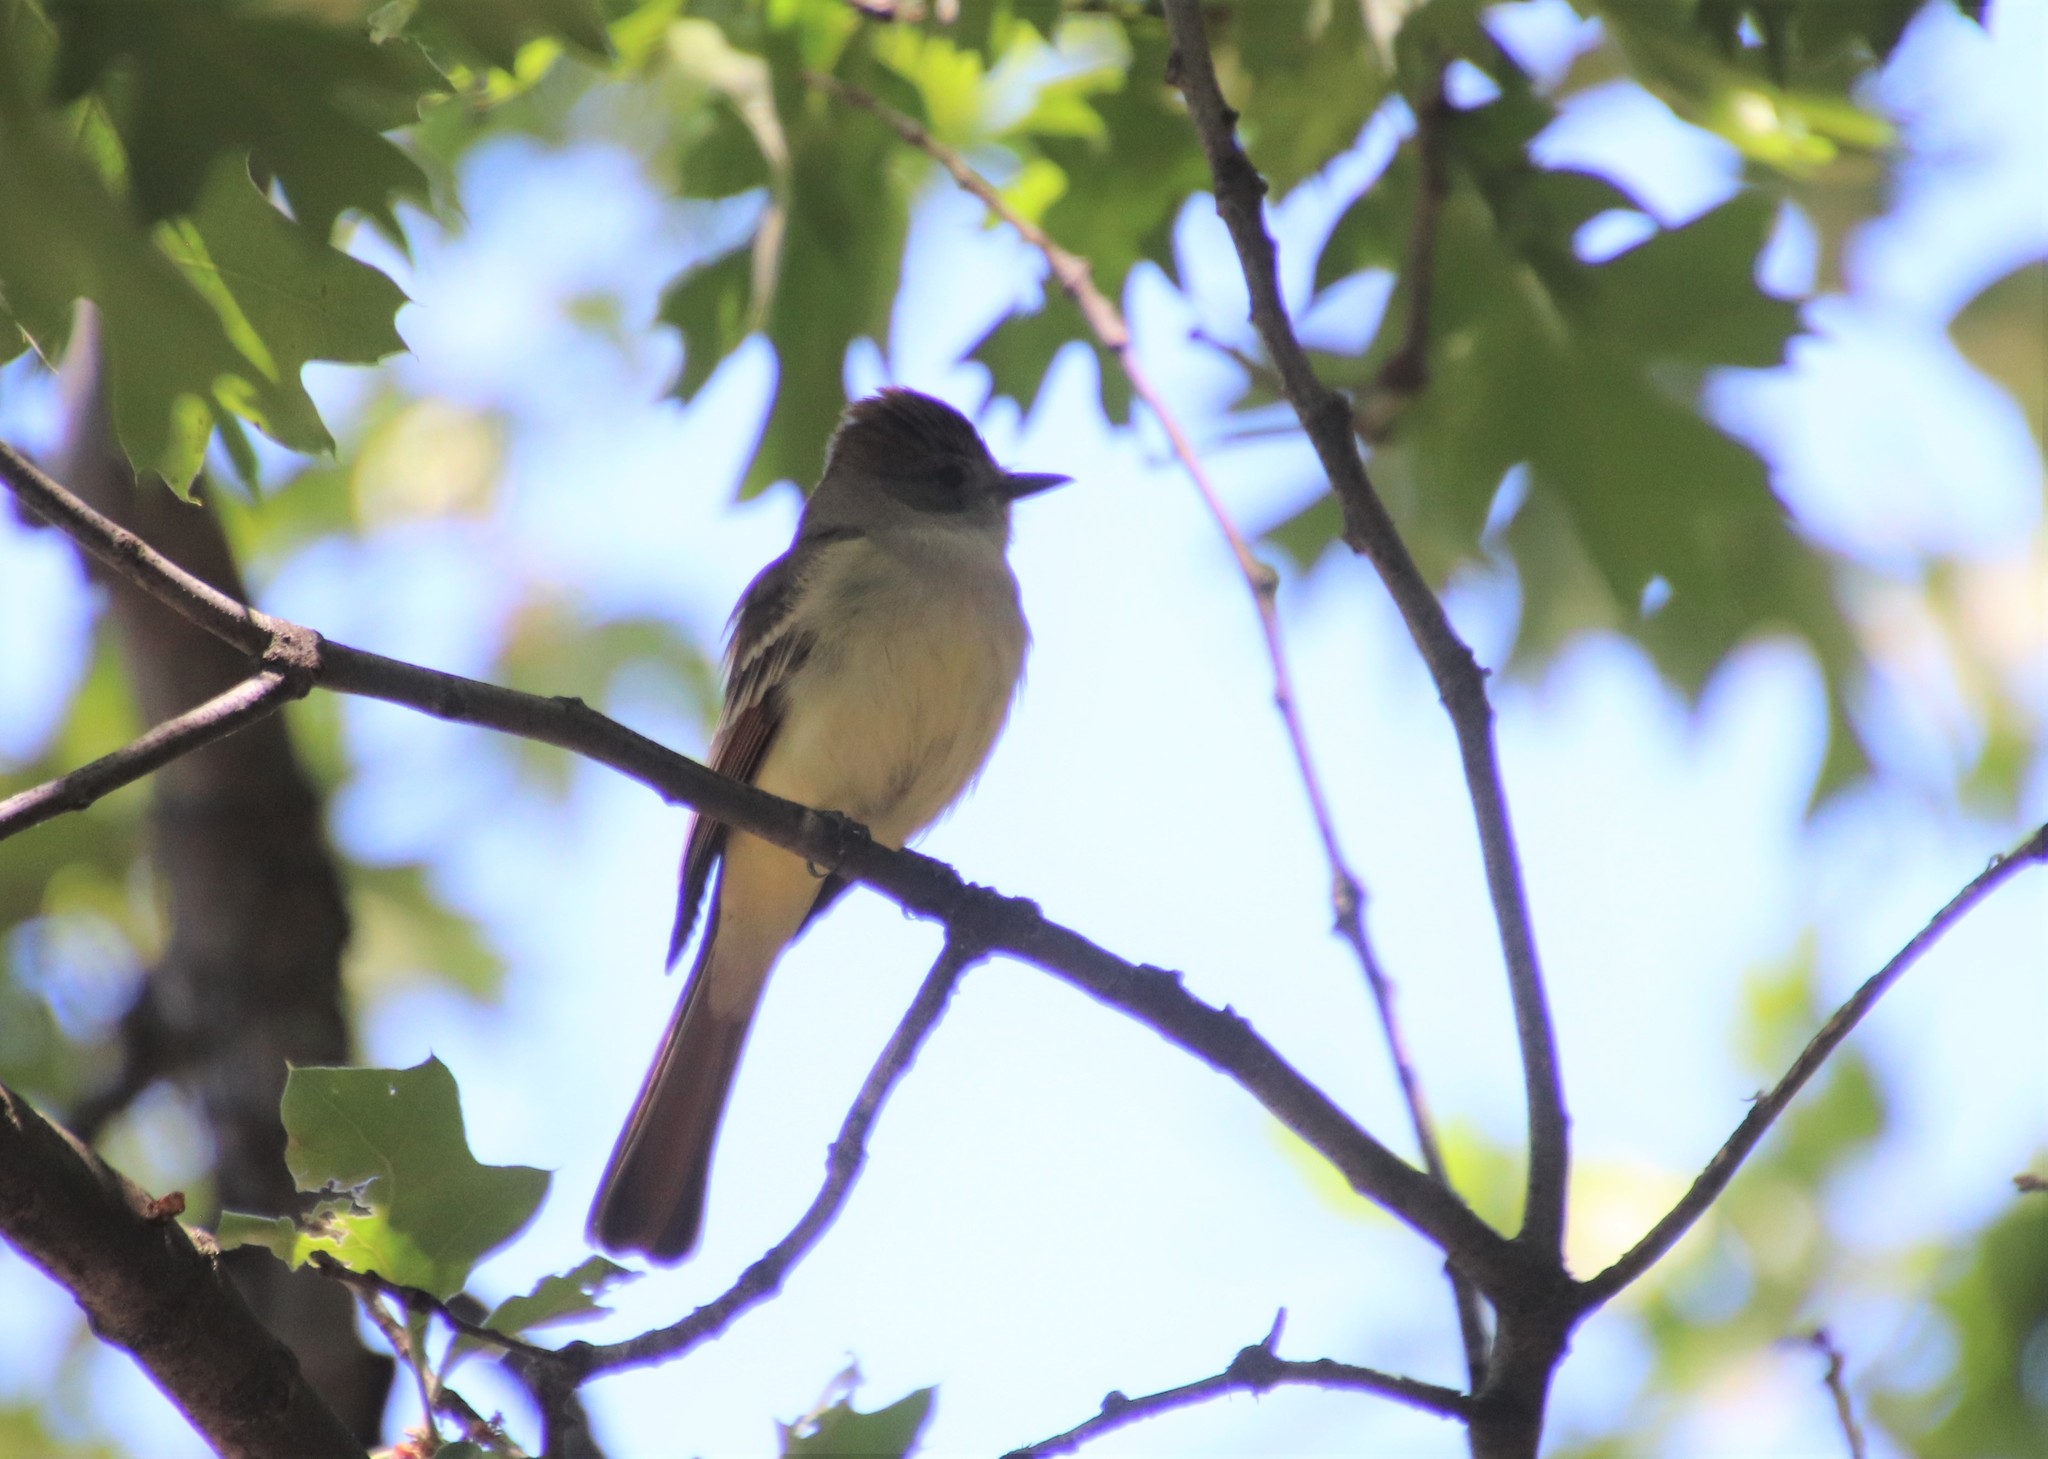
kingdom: Animalia
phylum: Chordata
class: Aves
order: Passeriformes
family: Tyrannidae
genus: Myiarchus
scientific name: Myiarchus cinerascens
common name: Ash-throated flycatcher
